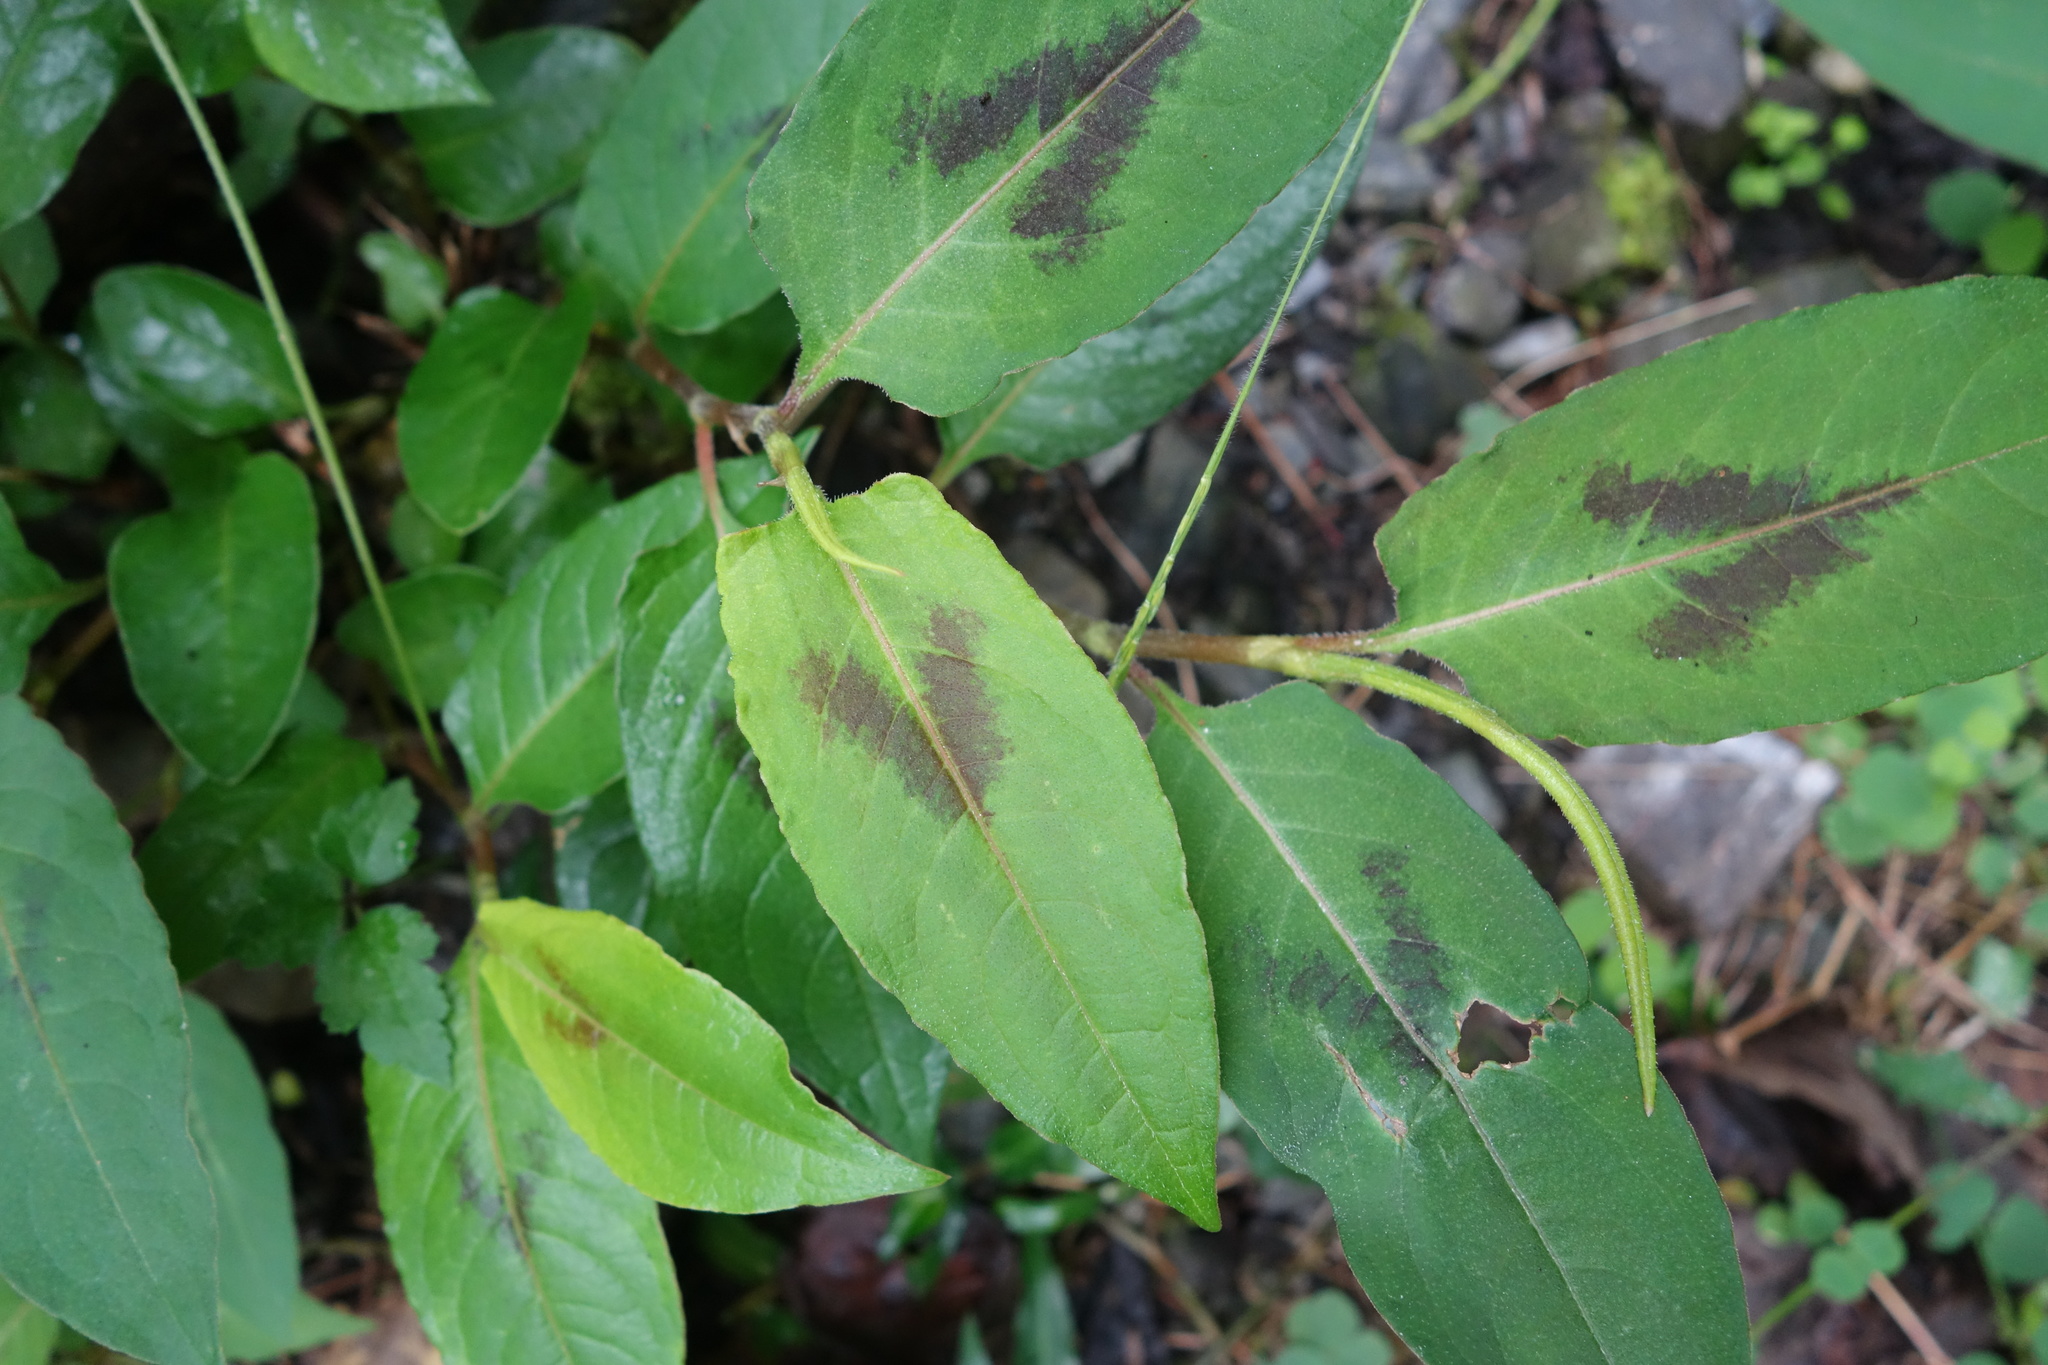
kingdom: Plantae
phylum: Tracheophyta
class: Magnoliopsida
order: Caryophyllales
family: Polygonaceae
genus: Persicaria
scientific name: Persicaria chinensis
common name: Chinese knotweed
